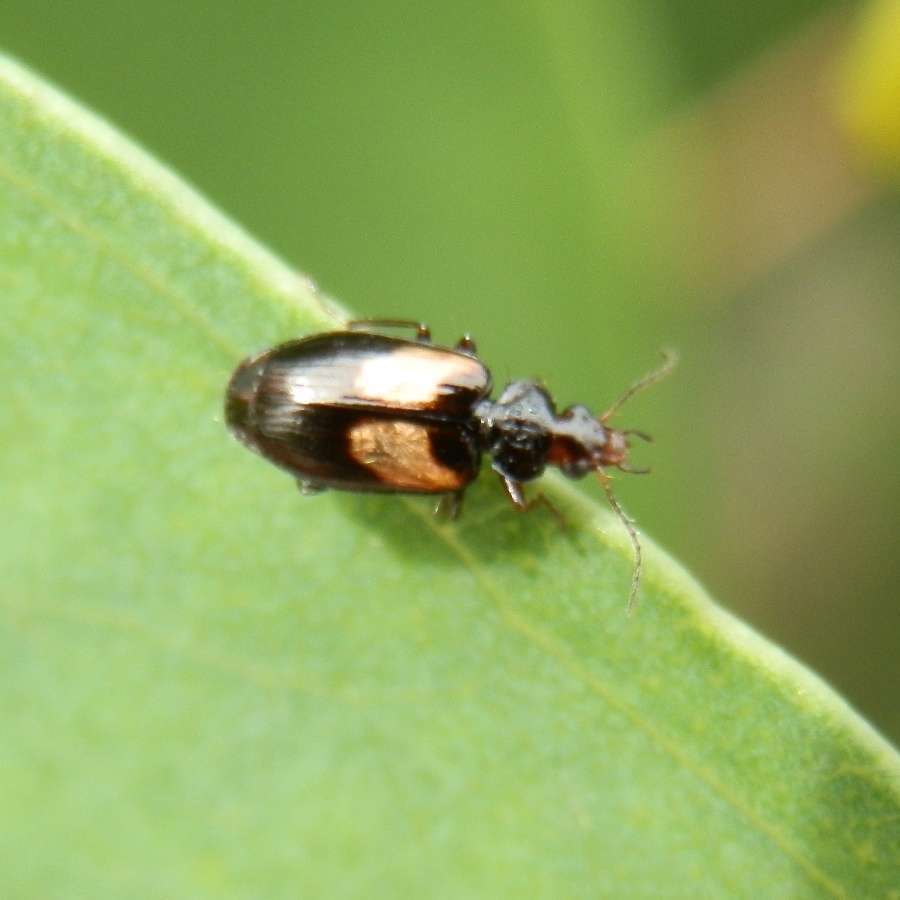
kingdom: Animalia
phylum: Arthropoda
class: Insecta
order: Coleoptera
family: Carabidae
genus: Sarothrocrepis
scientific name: Sarothrocrepis civica
